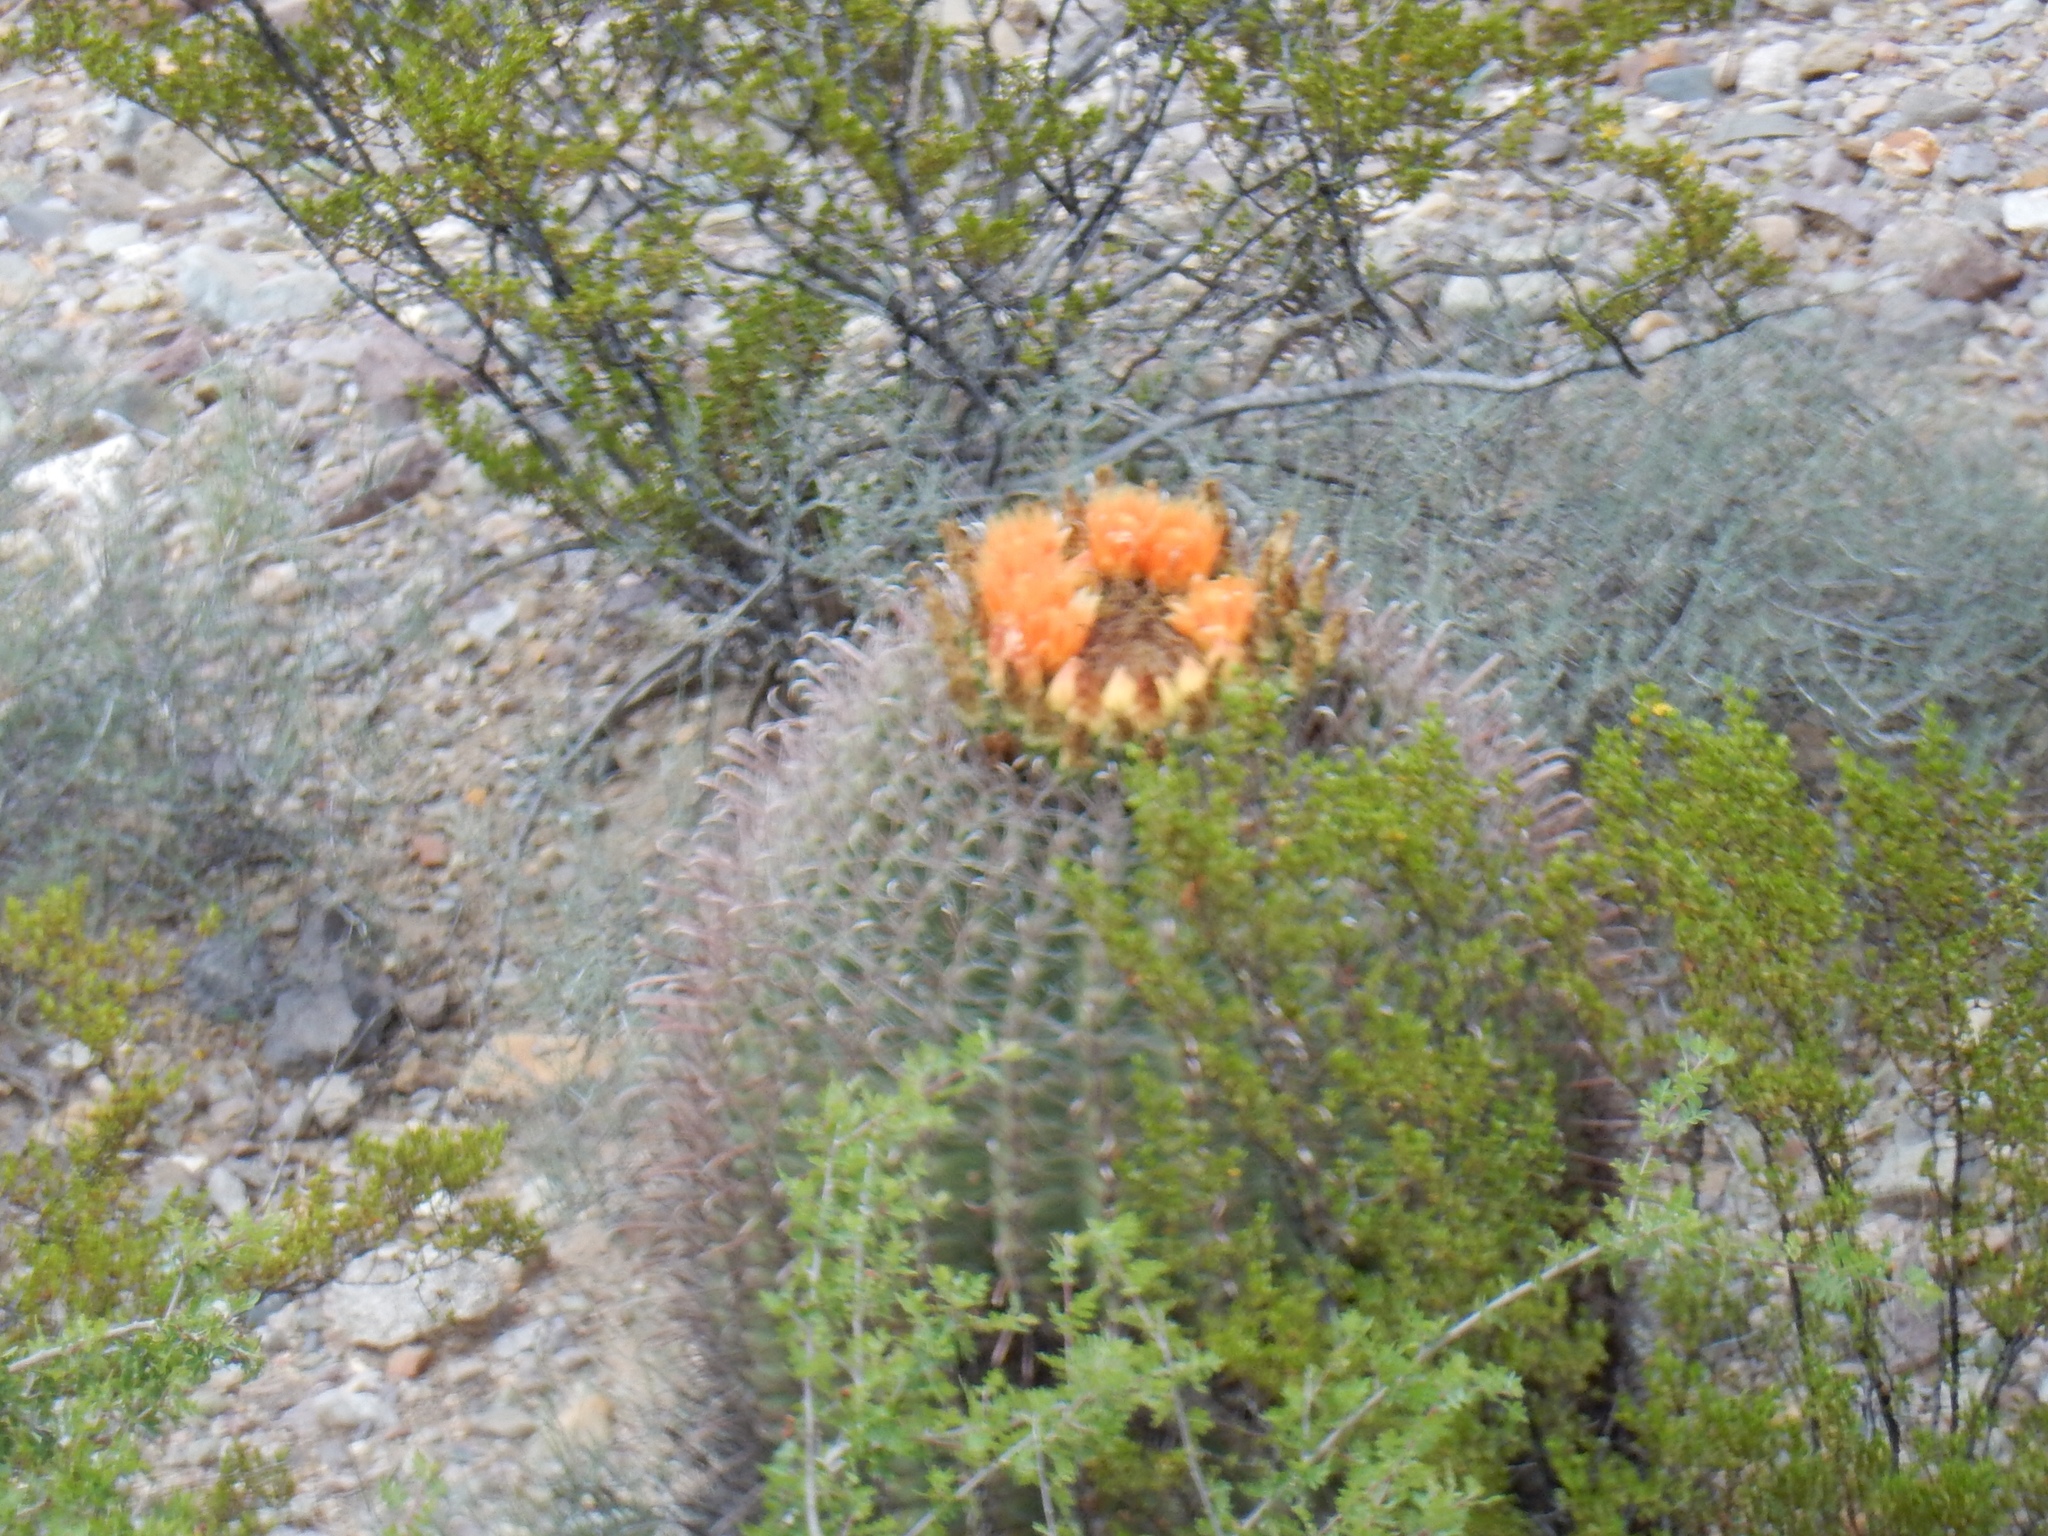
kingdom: Plantae
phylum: Tracheophyta
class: Magnoliopsida
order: Caryophyllales
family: Cactaceae
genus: Ferocactus
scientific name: Ferocactus wislizeni
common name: Candy barrel cactus
